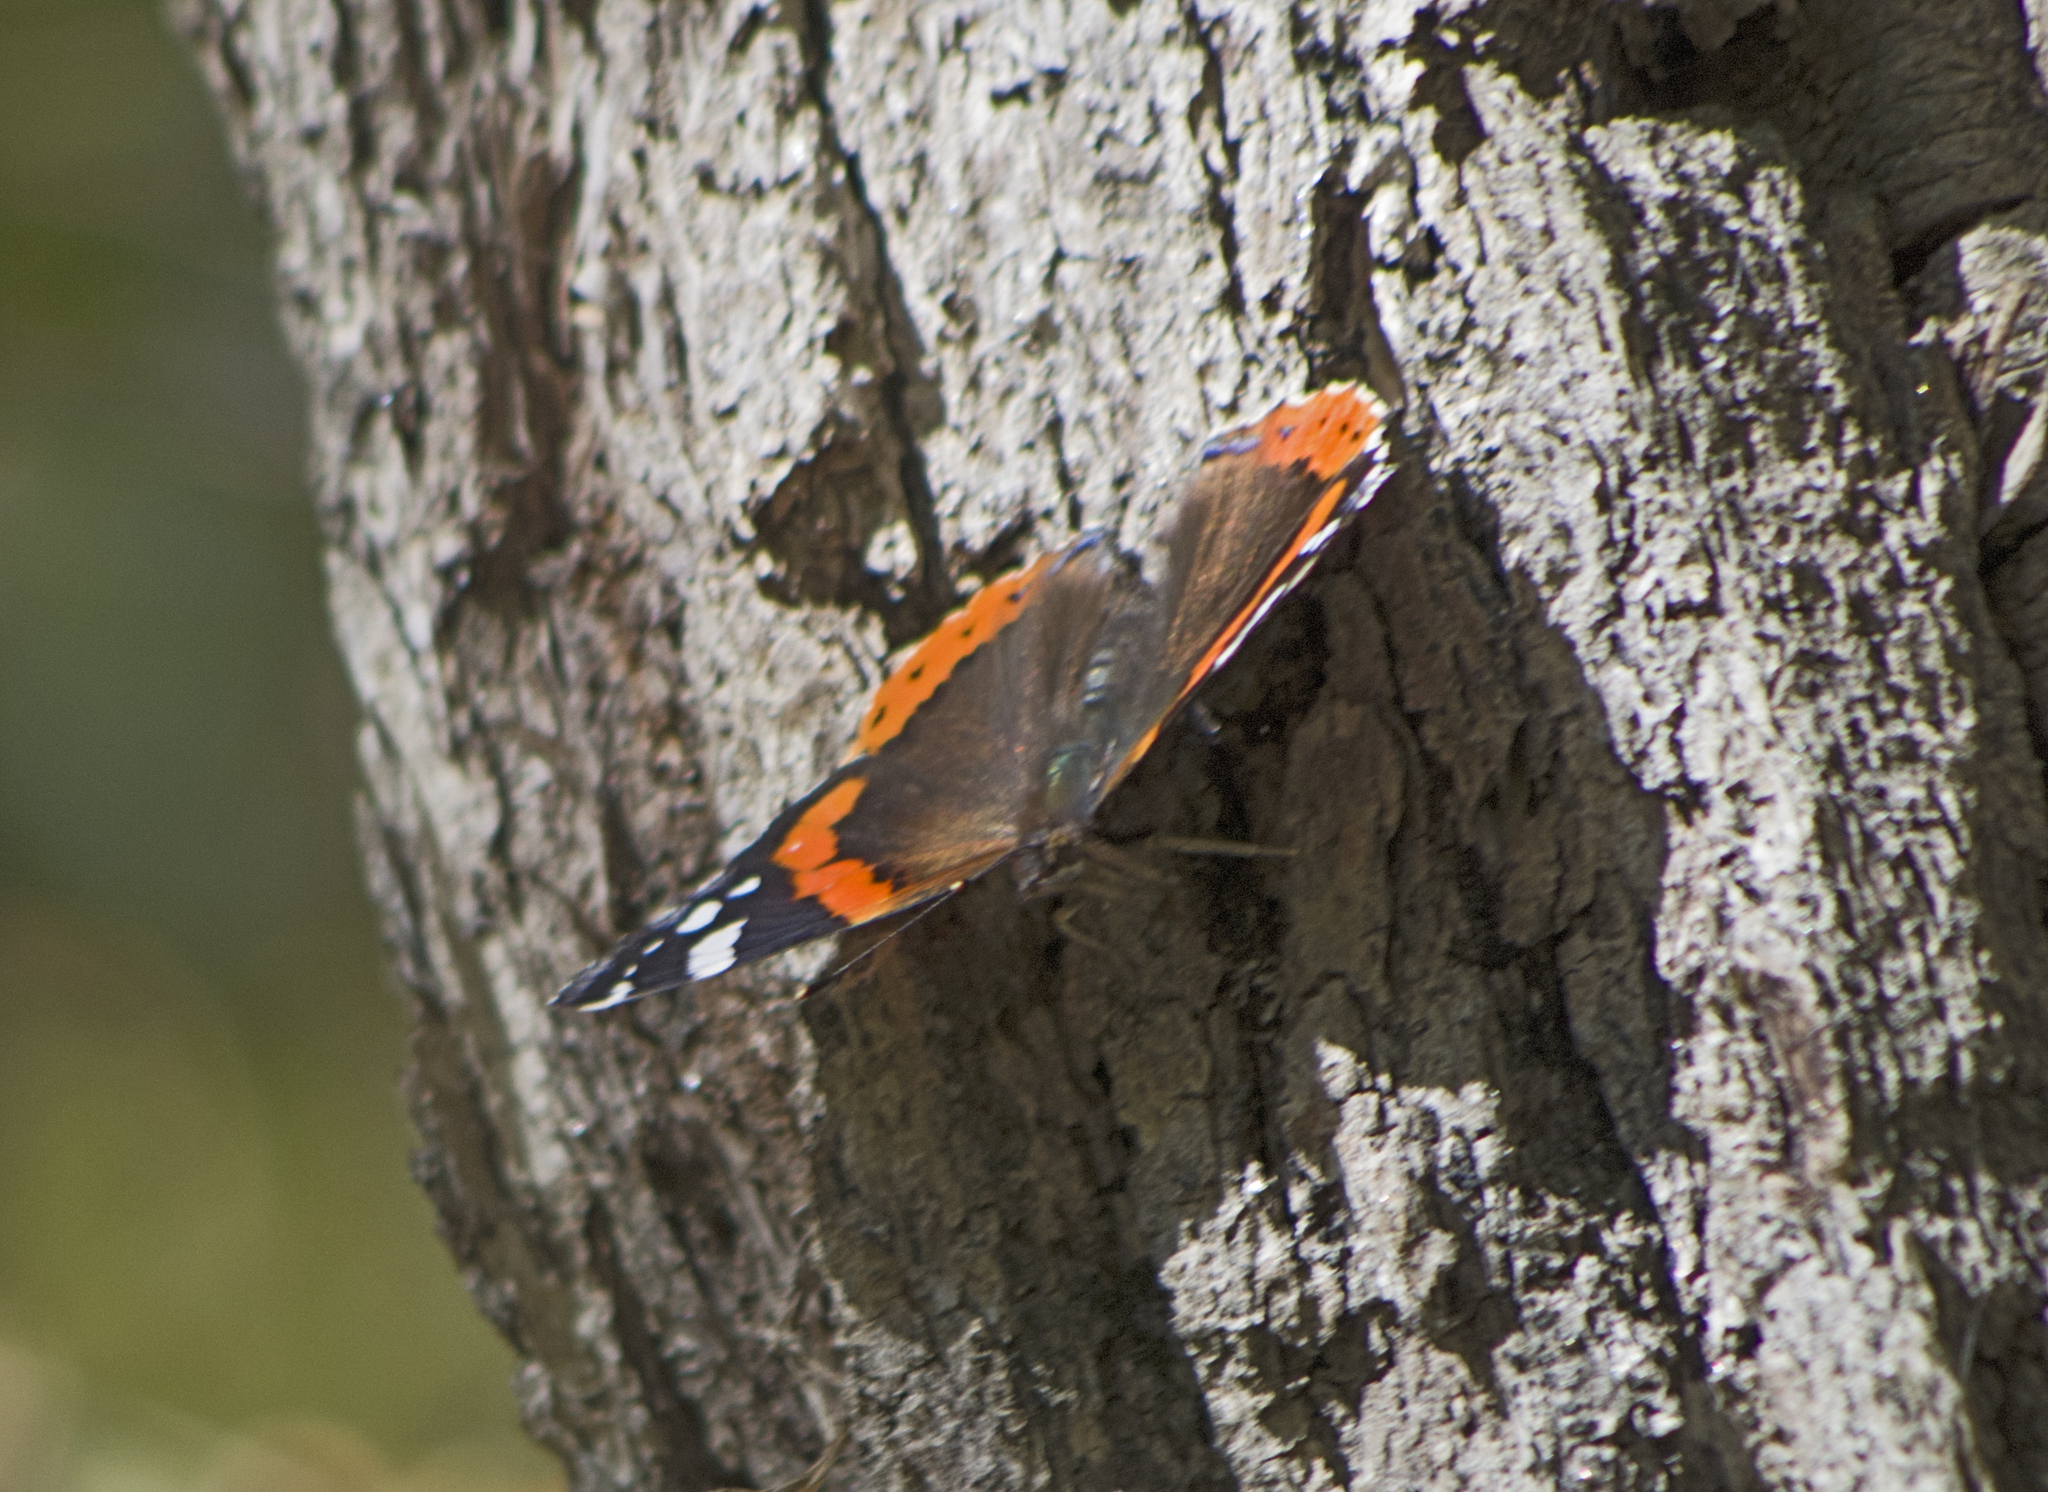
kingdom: Animalia
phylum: Arthropoda
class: Insecta
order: Lepidoptera
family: Nymphalidae
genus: Vanessa
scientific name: Vanessa atalanta
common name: Red admiral
